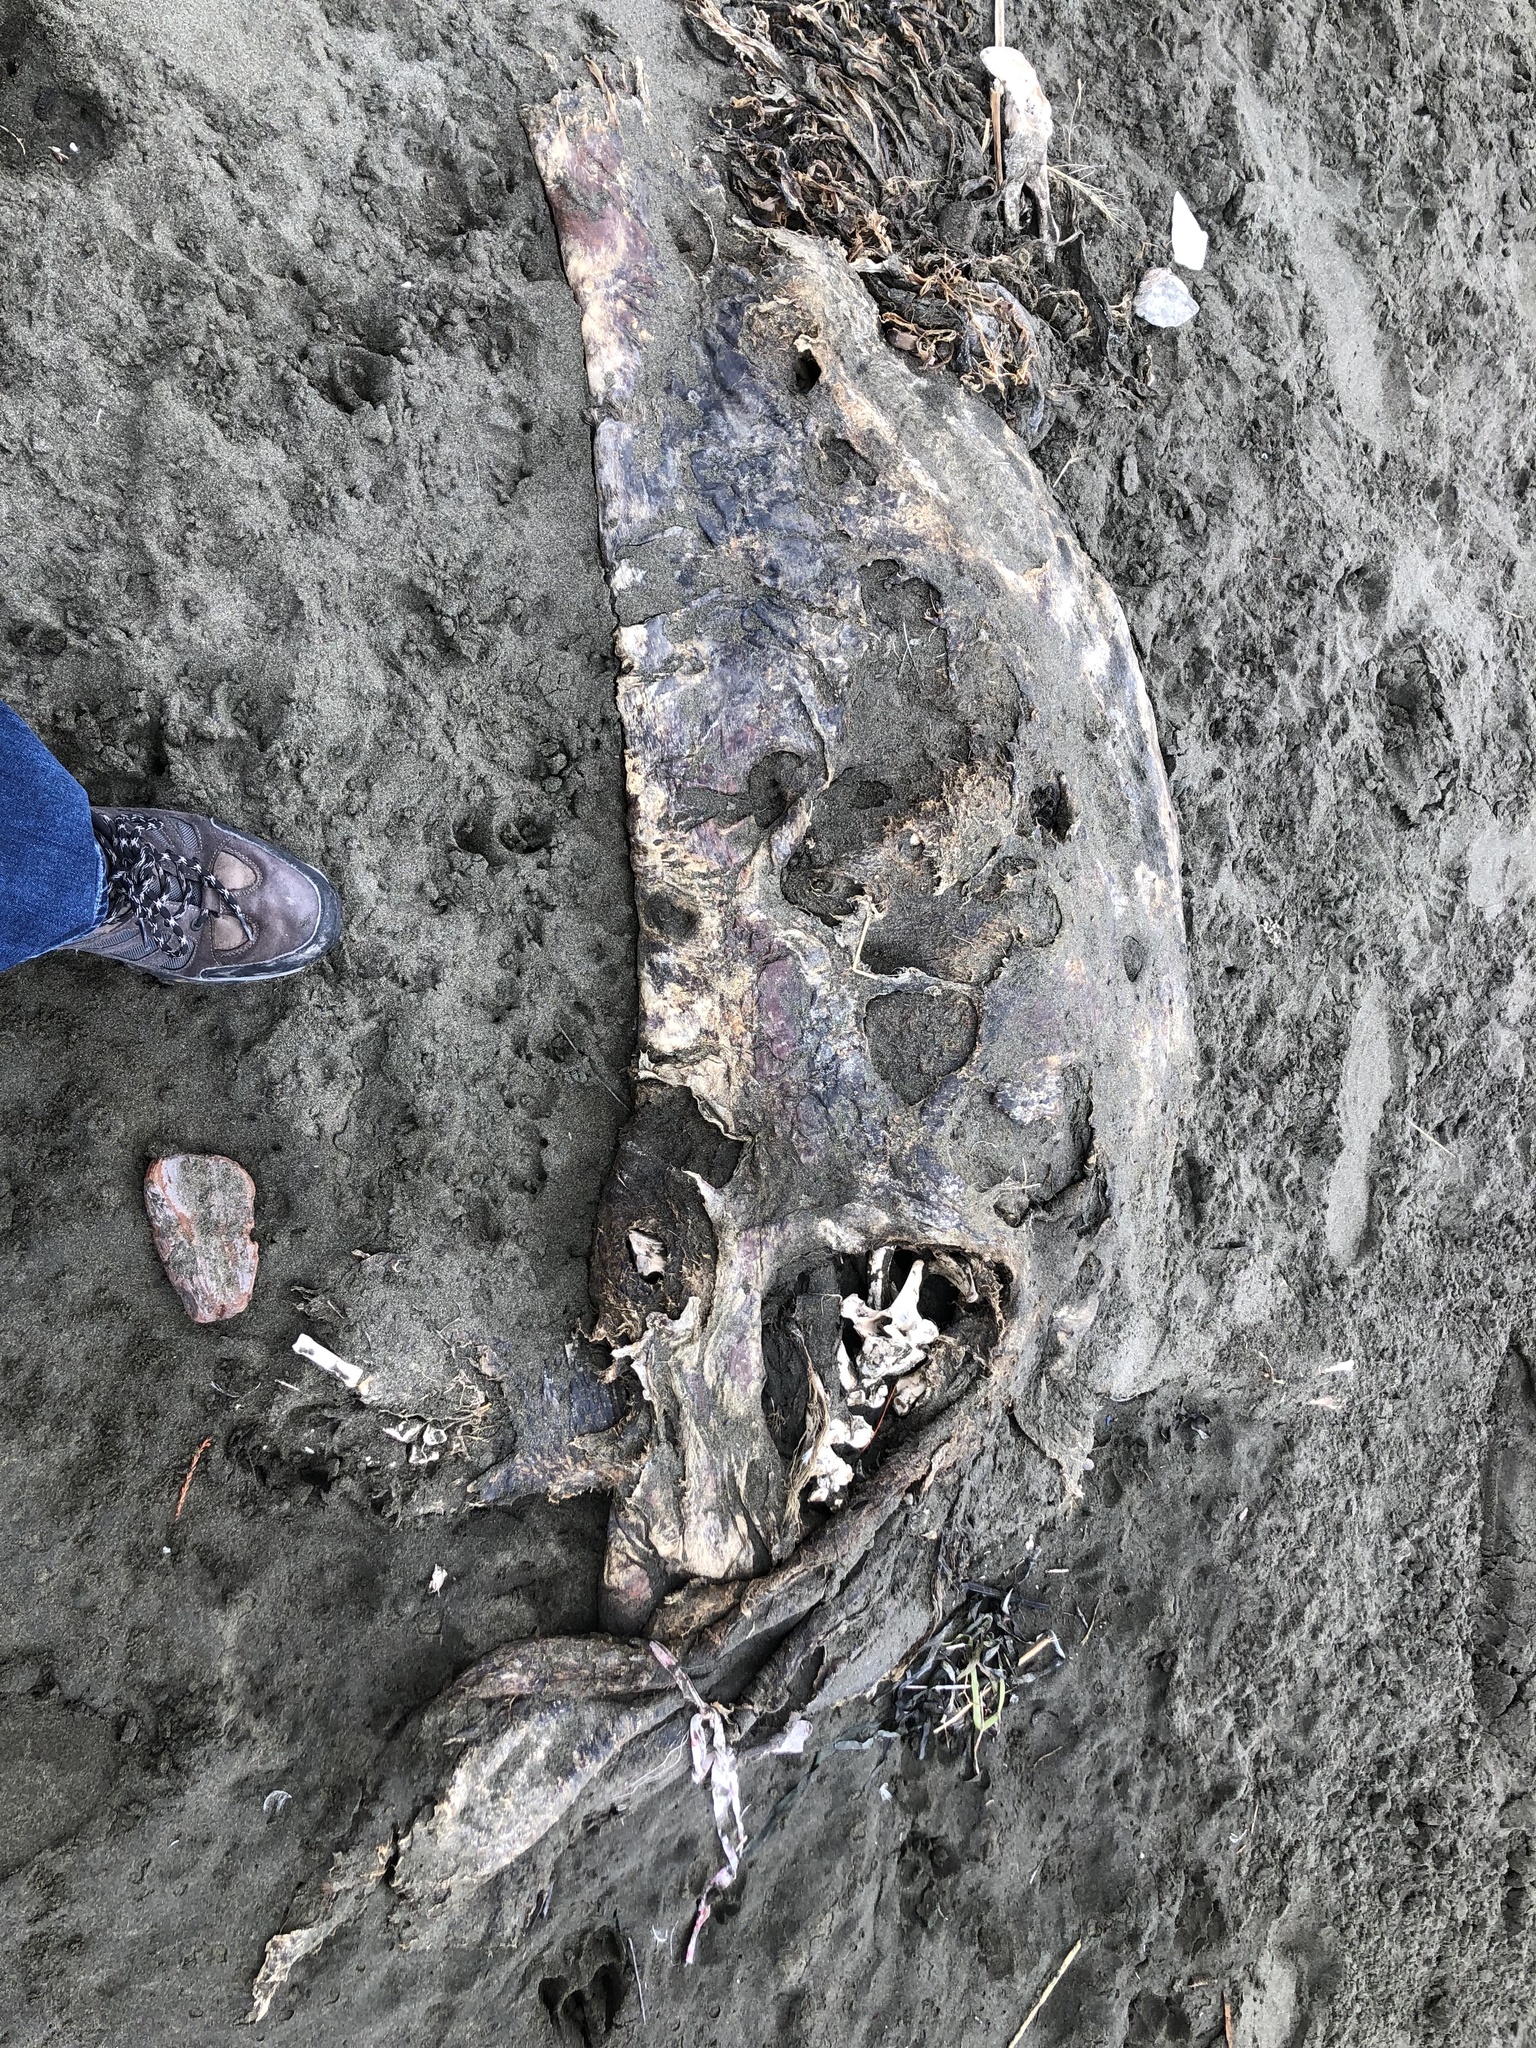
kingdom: Animalia
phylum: Chordata
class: Mammalia
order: Carnivora
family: Otariidae
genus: Zalophus
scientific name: Zalophus californianus
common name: California sea lion
